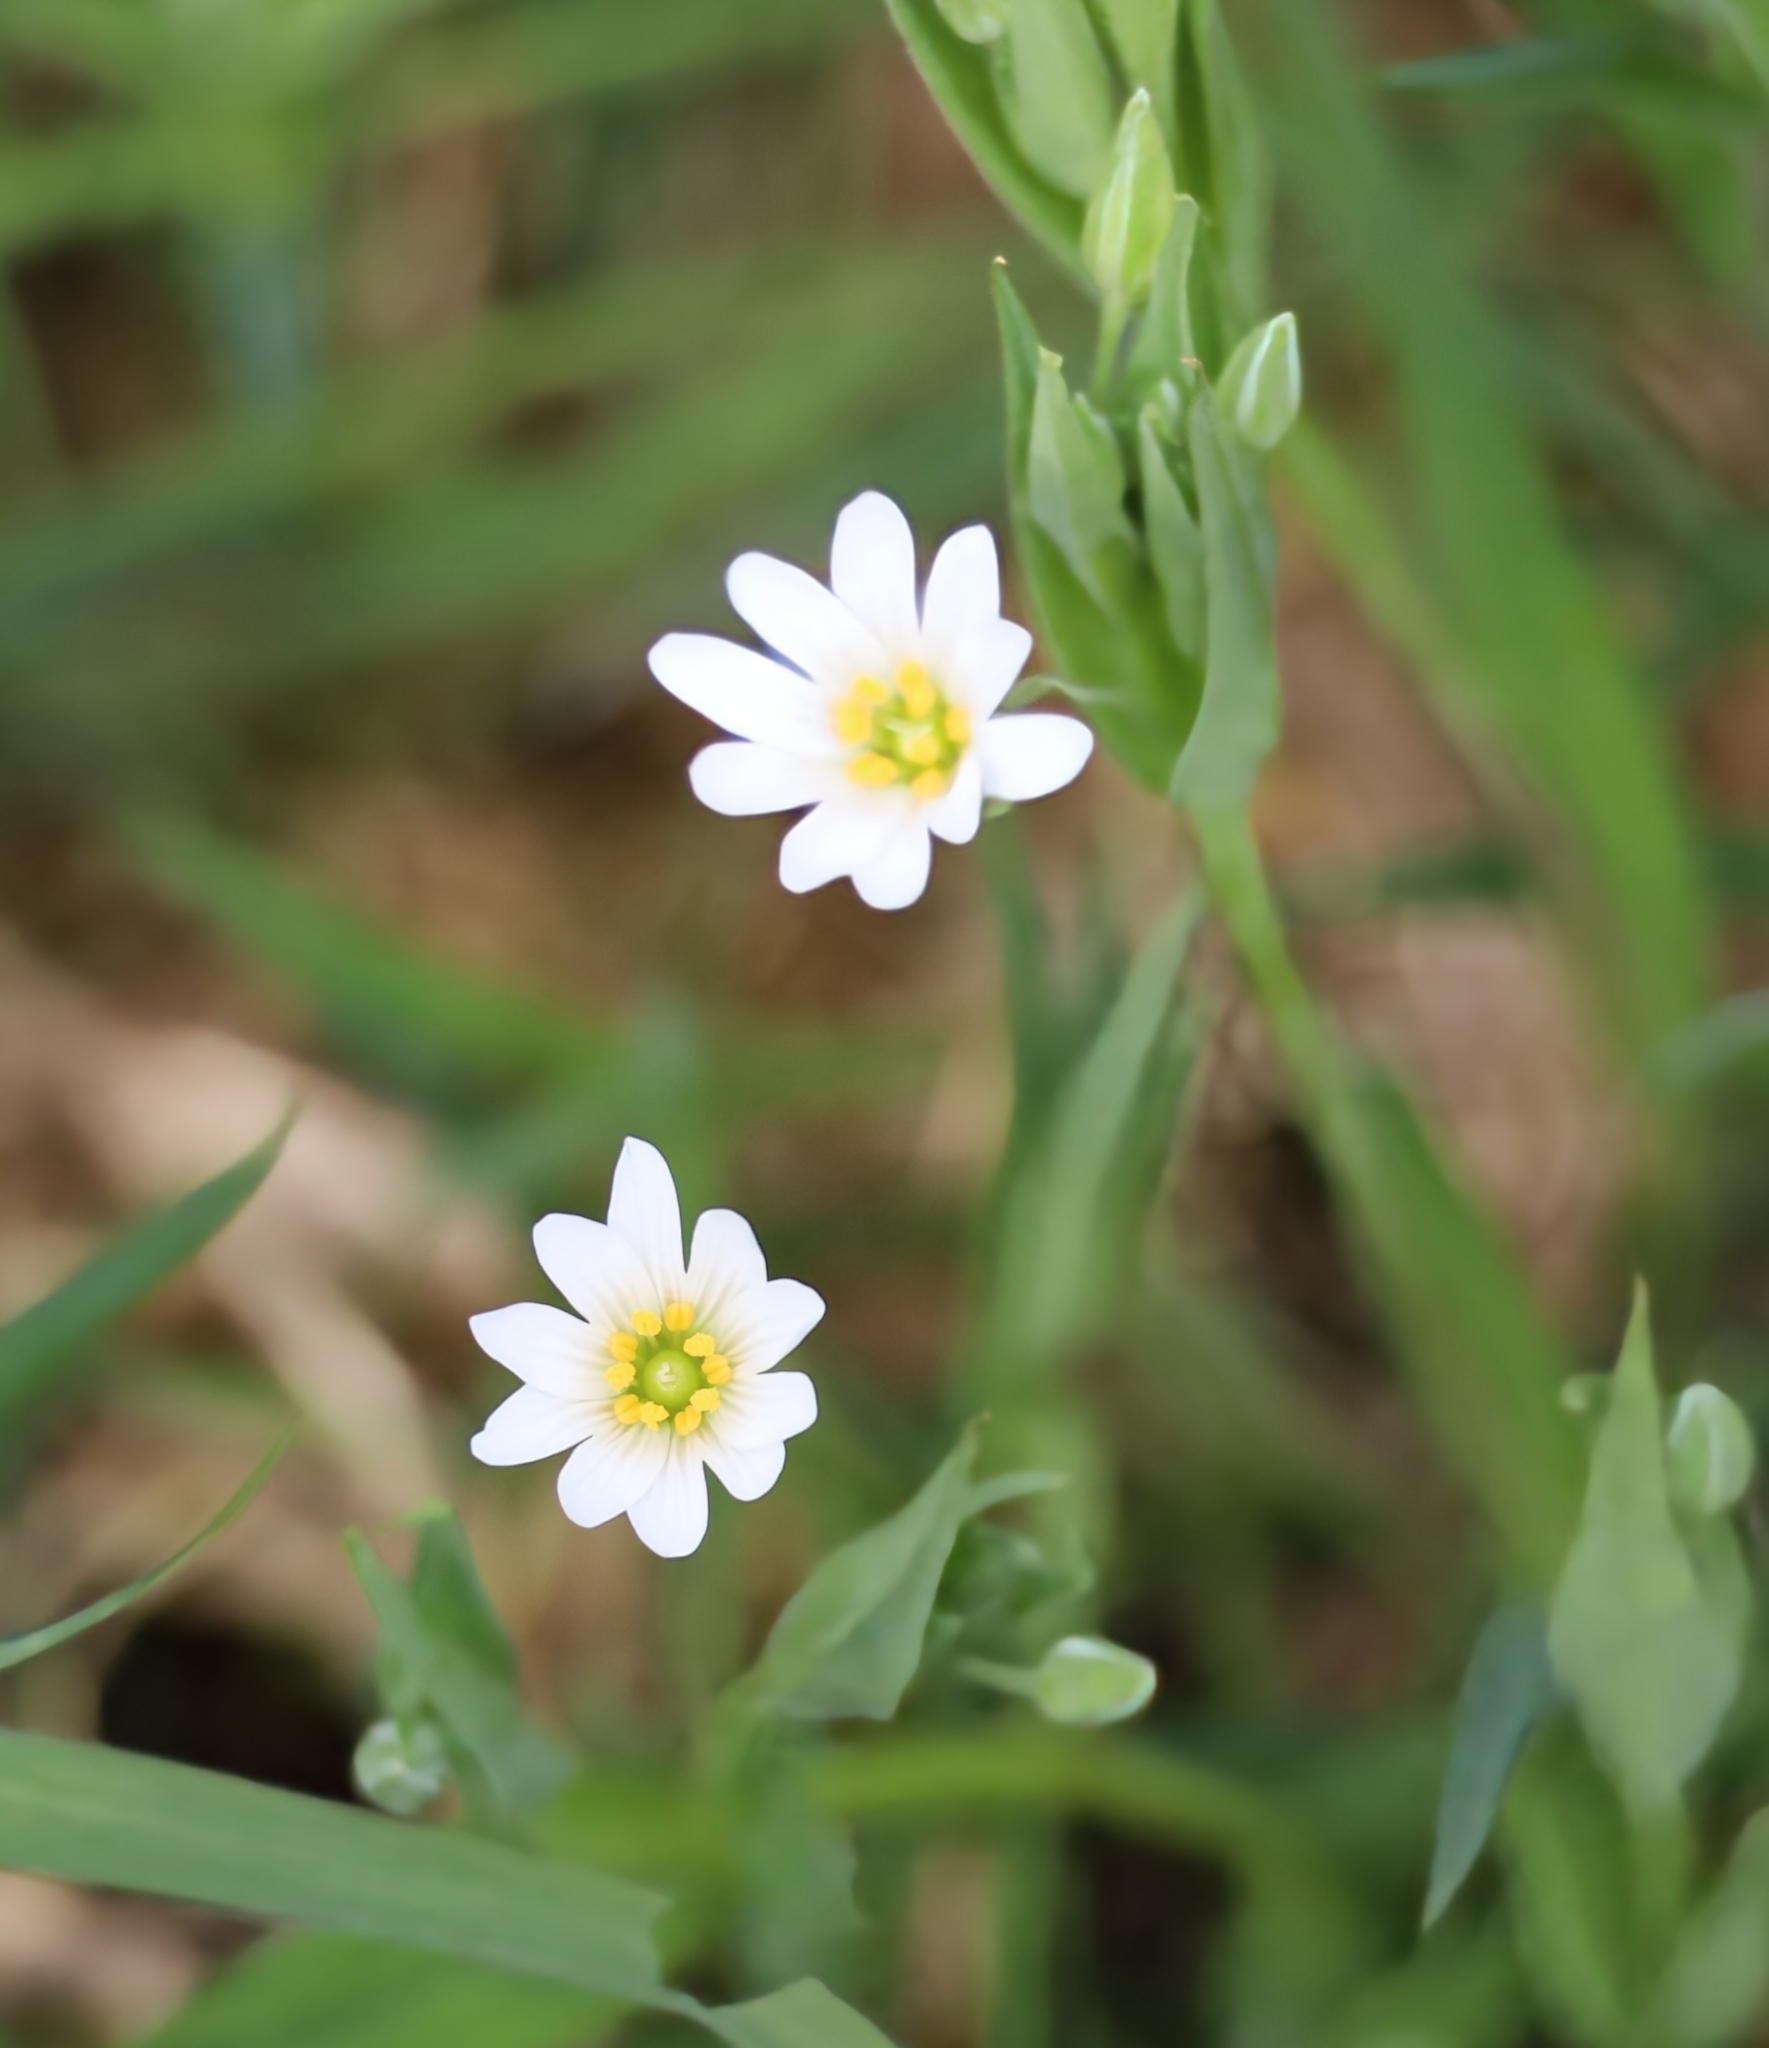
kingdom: Plantae
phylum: Tracheophyta
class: Magnoliopsida
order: Caryophyllales
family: Caryophyllaceae
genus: Rabelera
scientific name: Rabelera holostea
